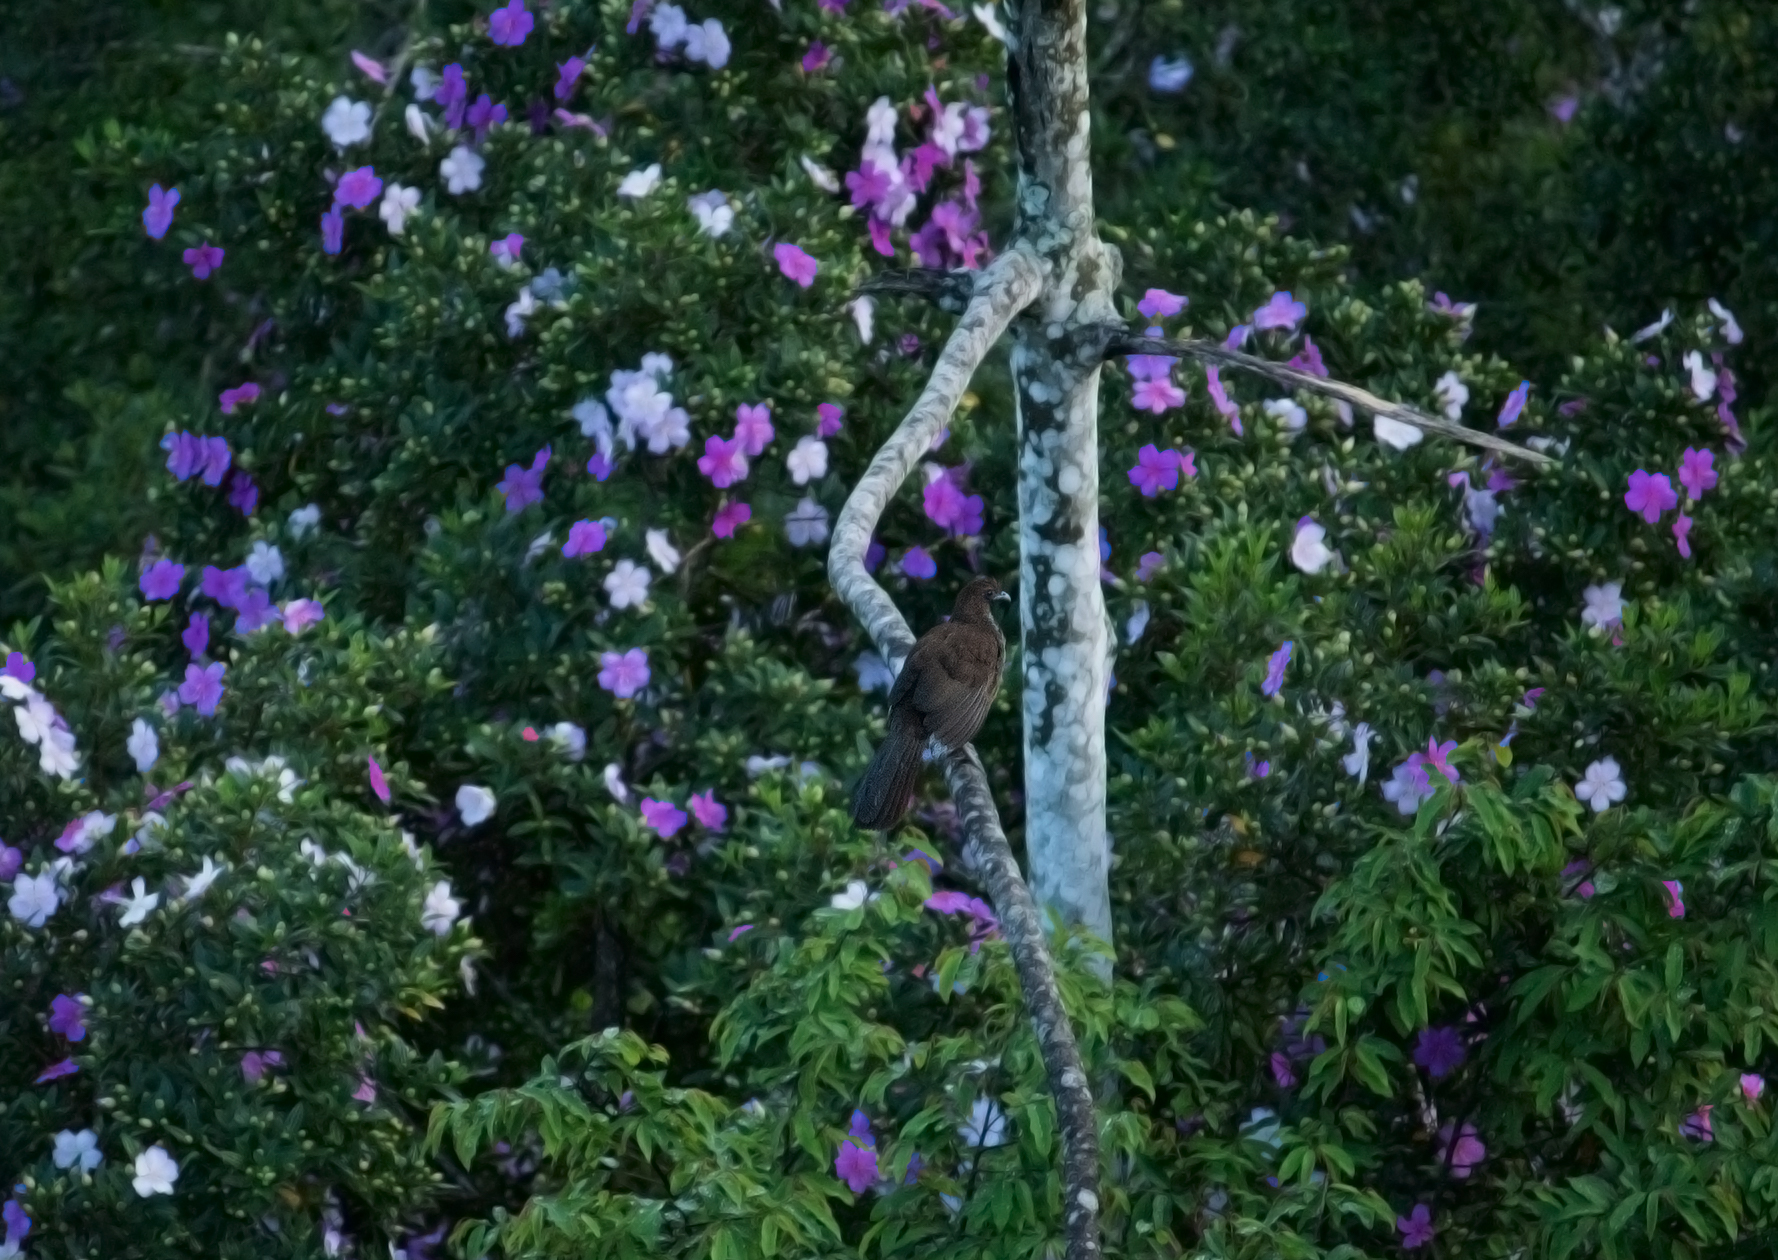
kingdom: Animalia
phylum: Chordata
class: Aves
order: Galliformes
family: Cracidae
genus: Ortalis
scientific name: Ortalis squamata
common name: Scaled chachalaca
